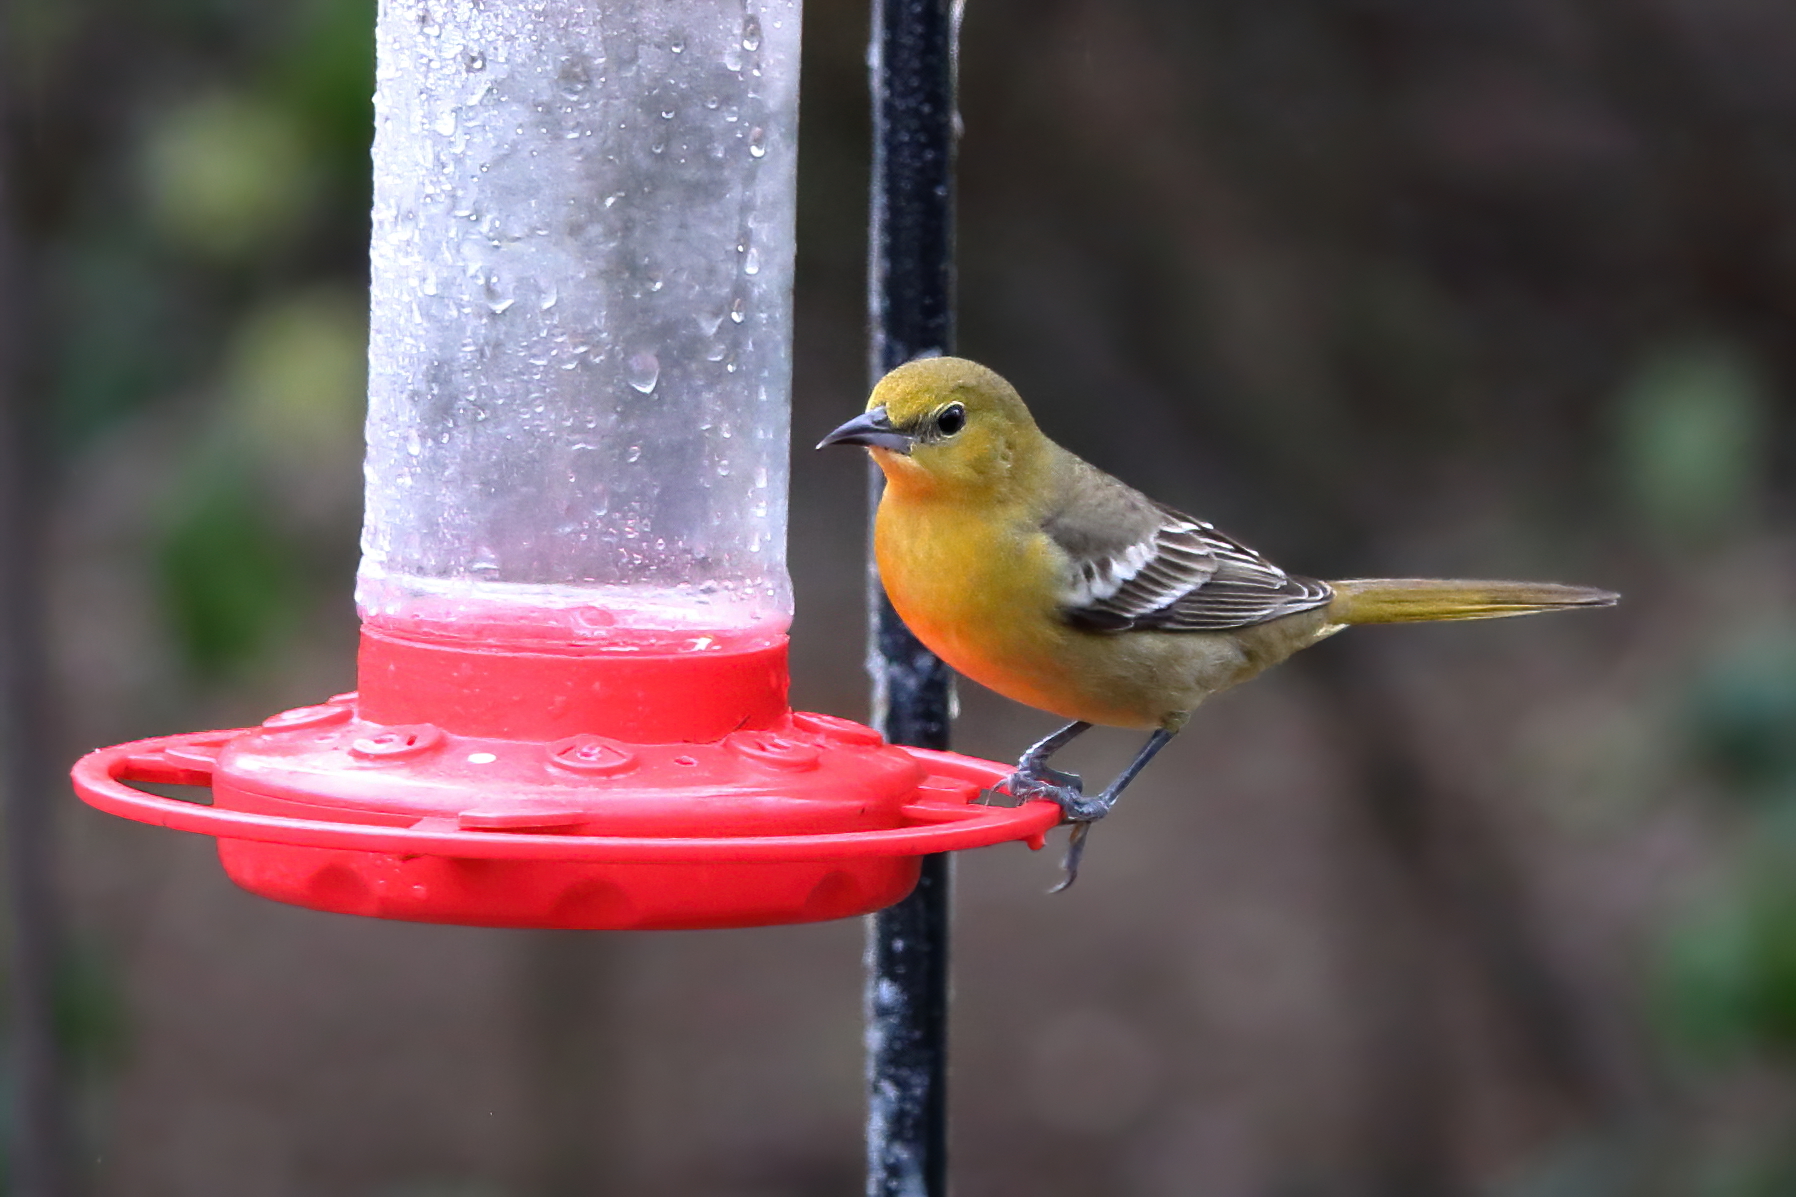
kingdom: Animalia
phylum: Chordata
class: Aves
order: Passeriformes
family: Icteridae
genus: Icterus
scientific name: Icterus cucullatus
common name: Hooded oriole
